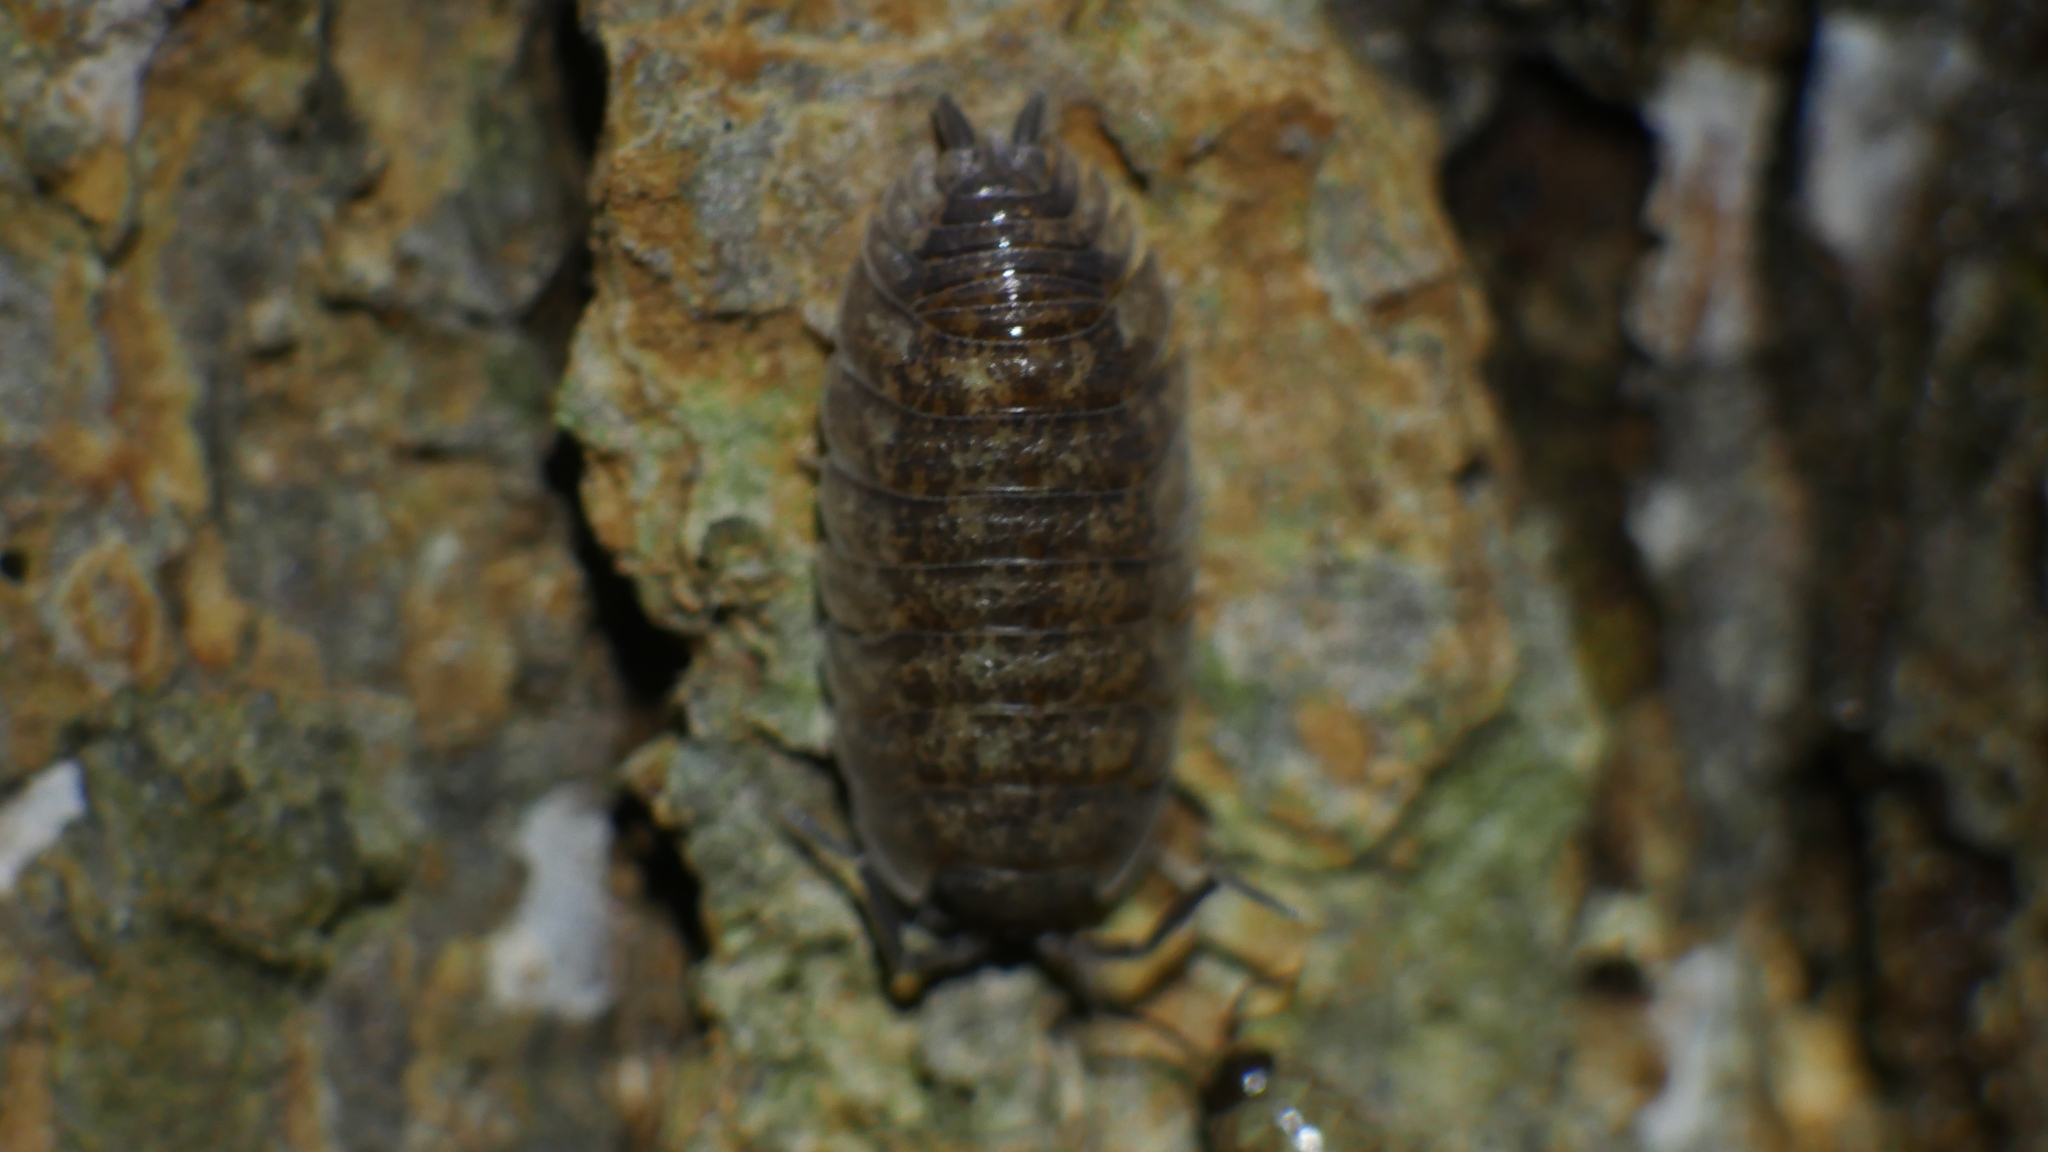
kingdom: Animalia
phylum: Arthropoda
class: Malacostraca
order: Isopoda
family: Porcellionidae
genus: Porcellio
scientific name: Porcellio scaber
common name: Common rough woodlouse
